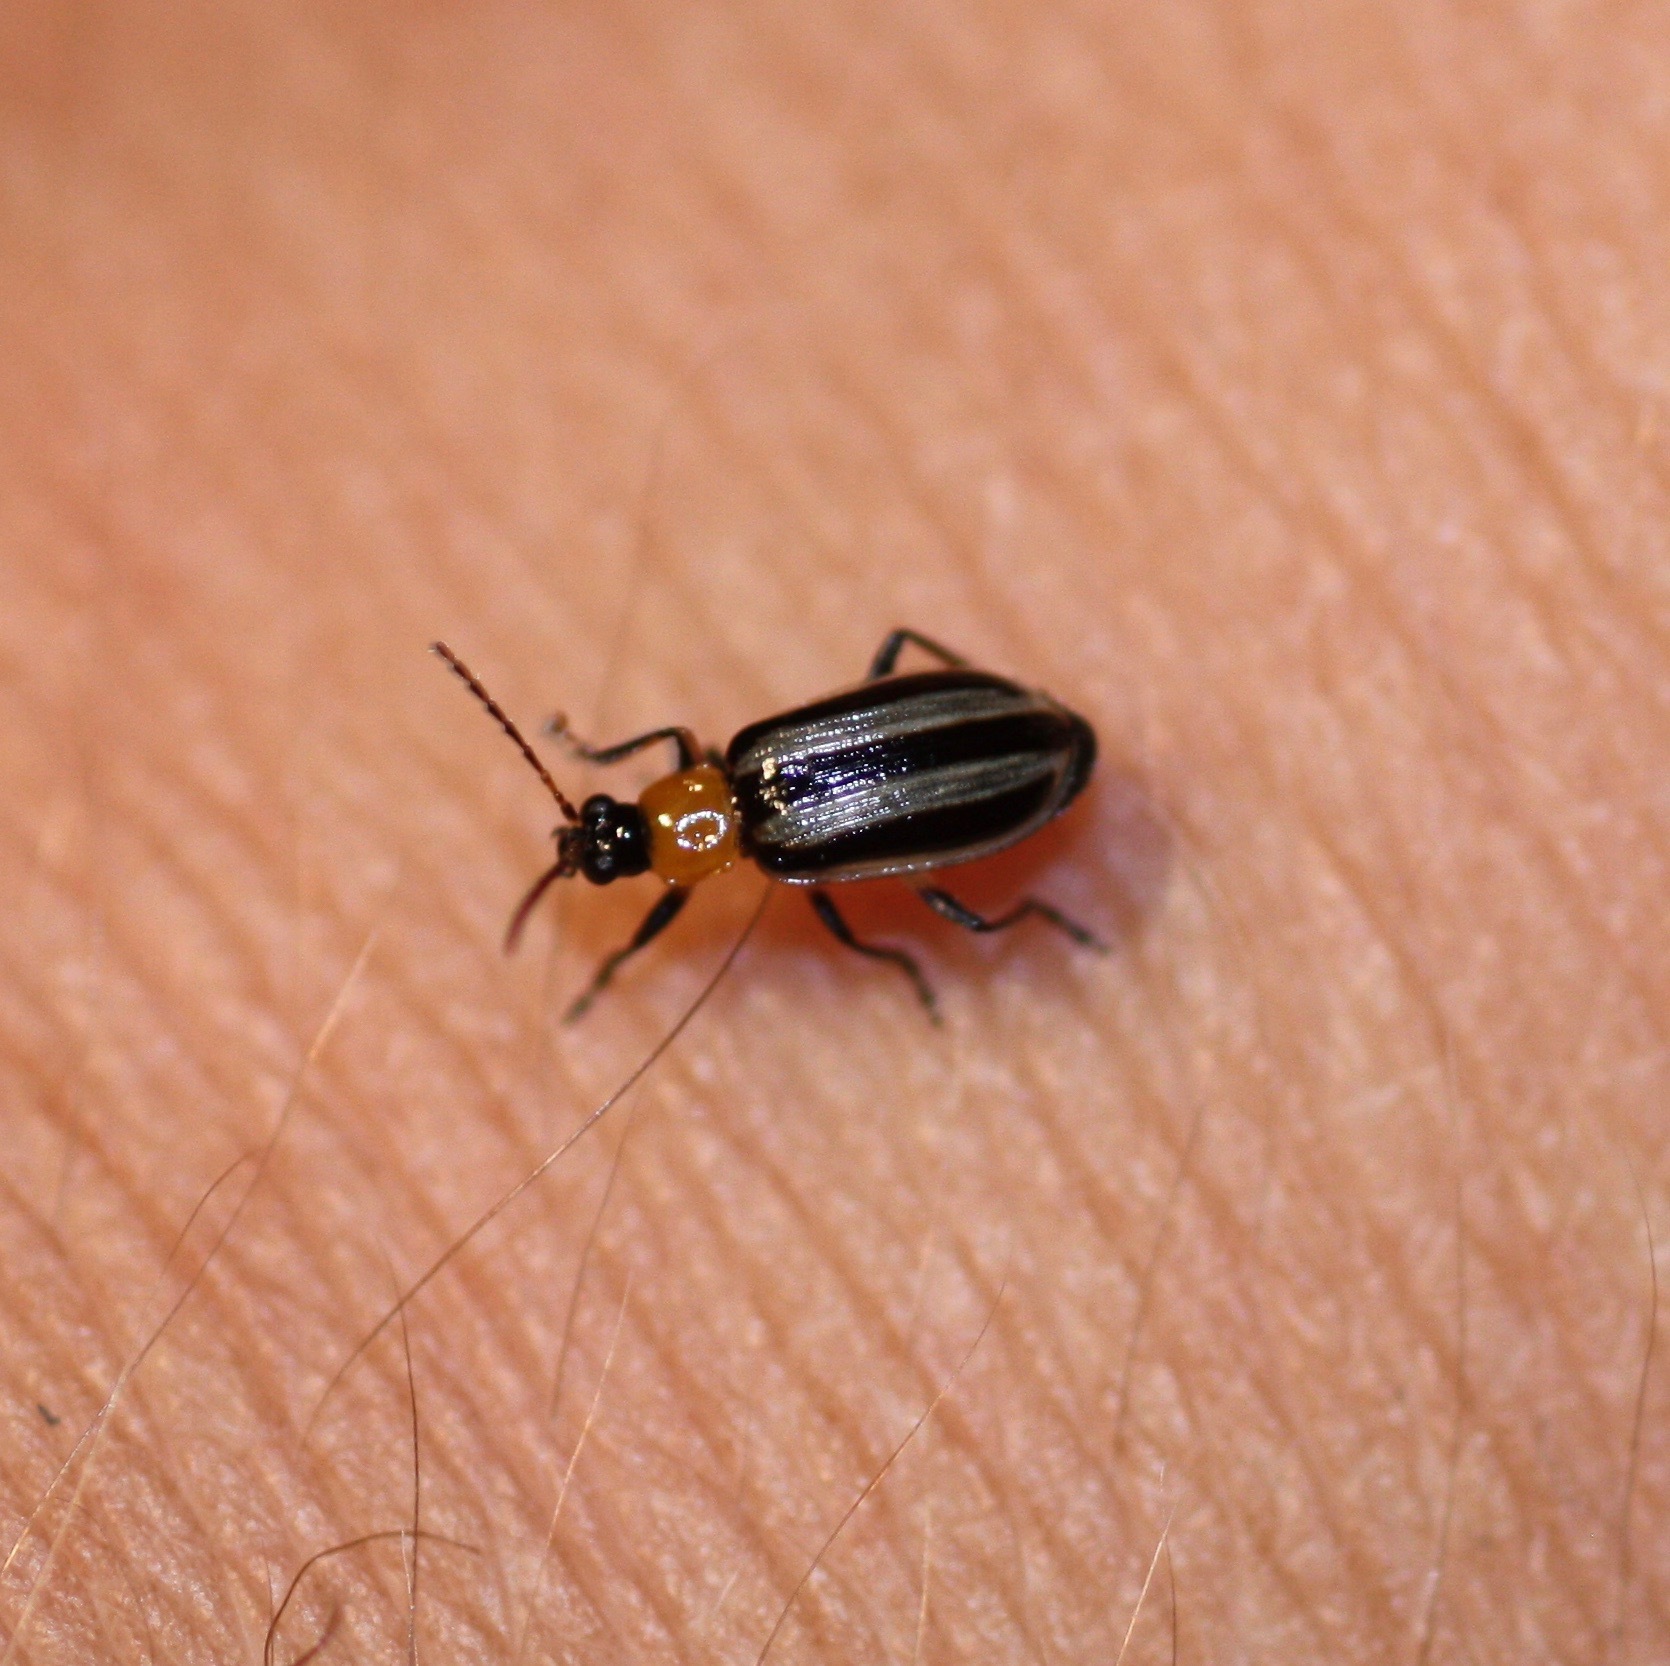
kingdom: Animalia
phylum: Arthropoda
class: Insecta
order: Coleoptera
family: Chrysomelidae
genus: Acalymma
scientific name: Acalymma trivittatum
